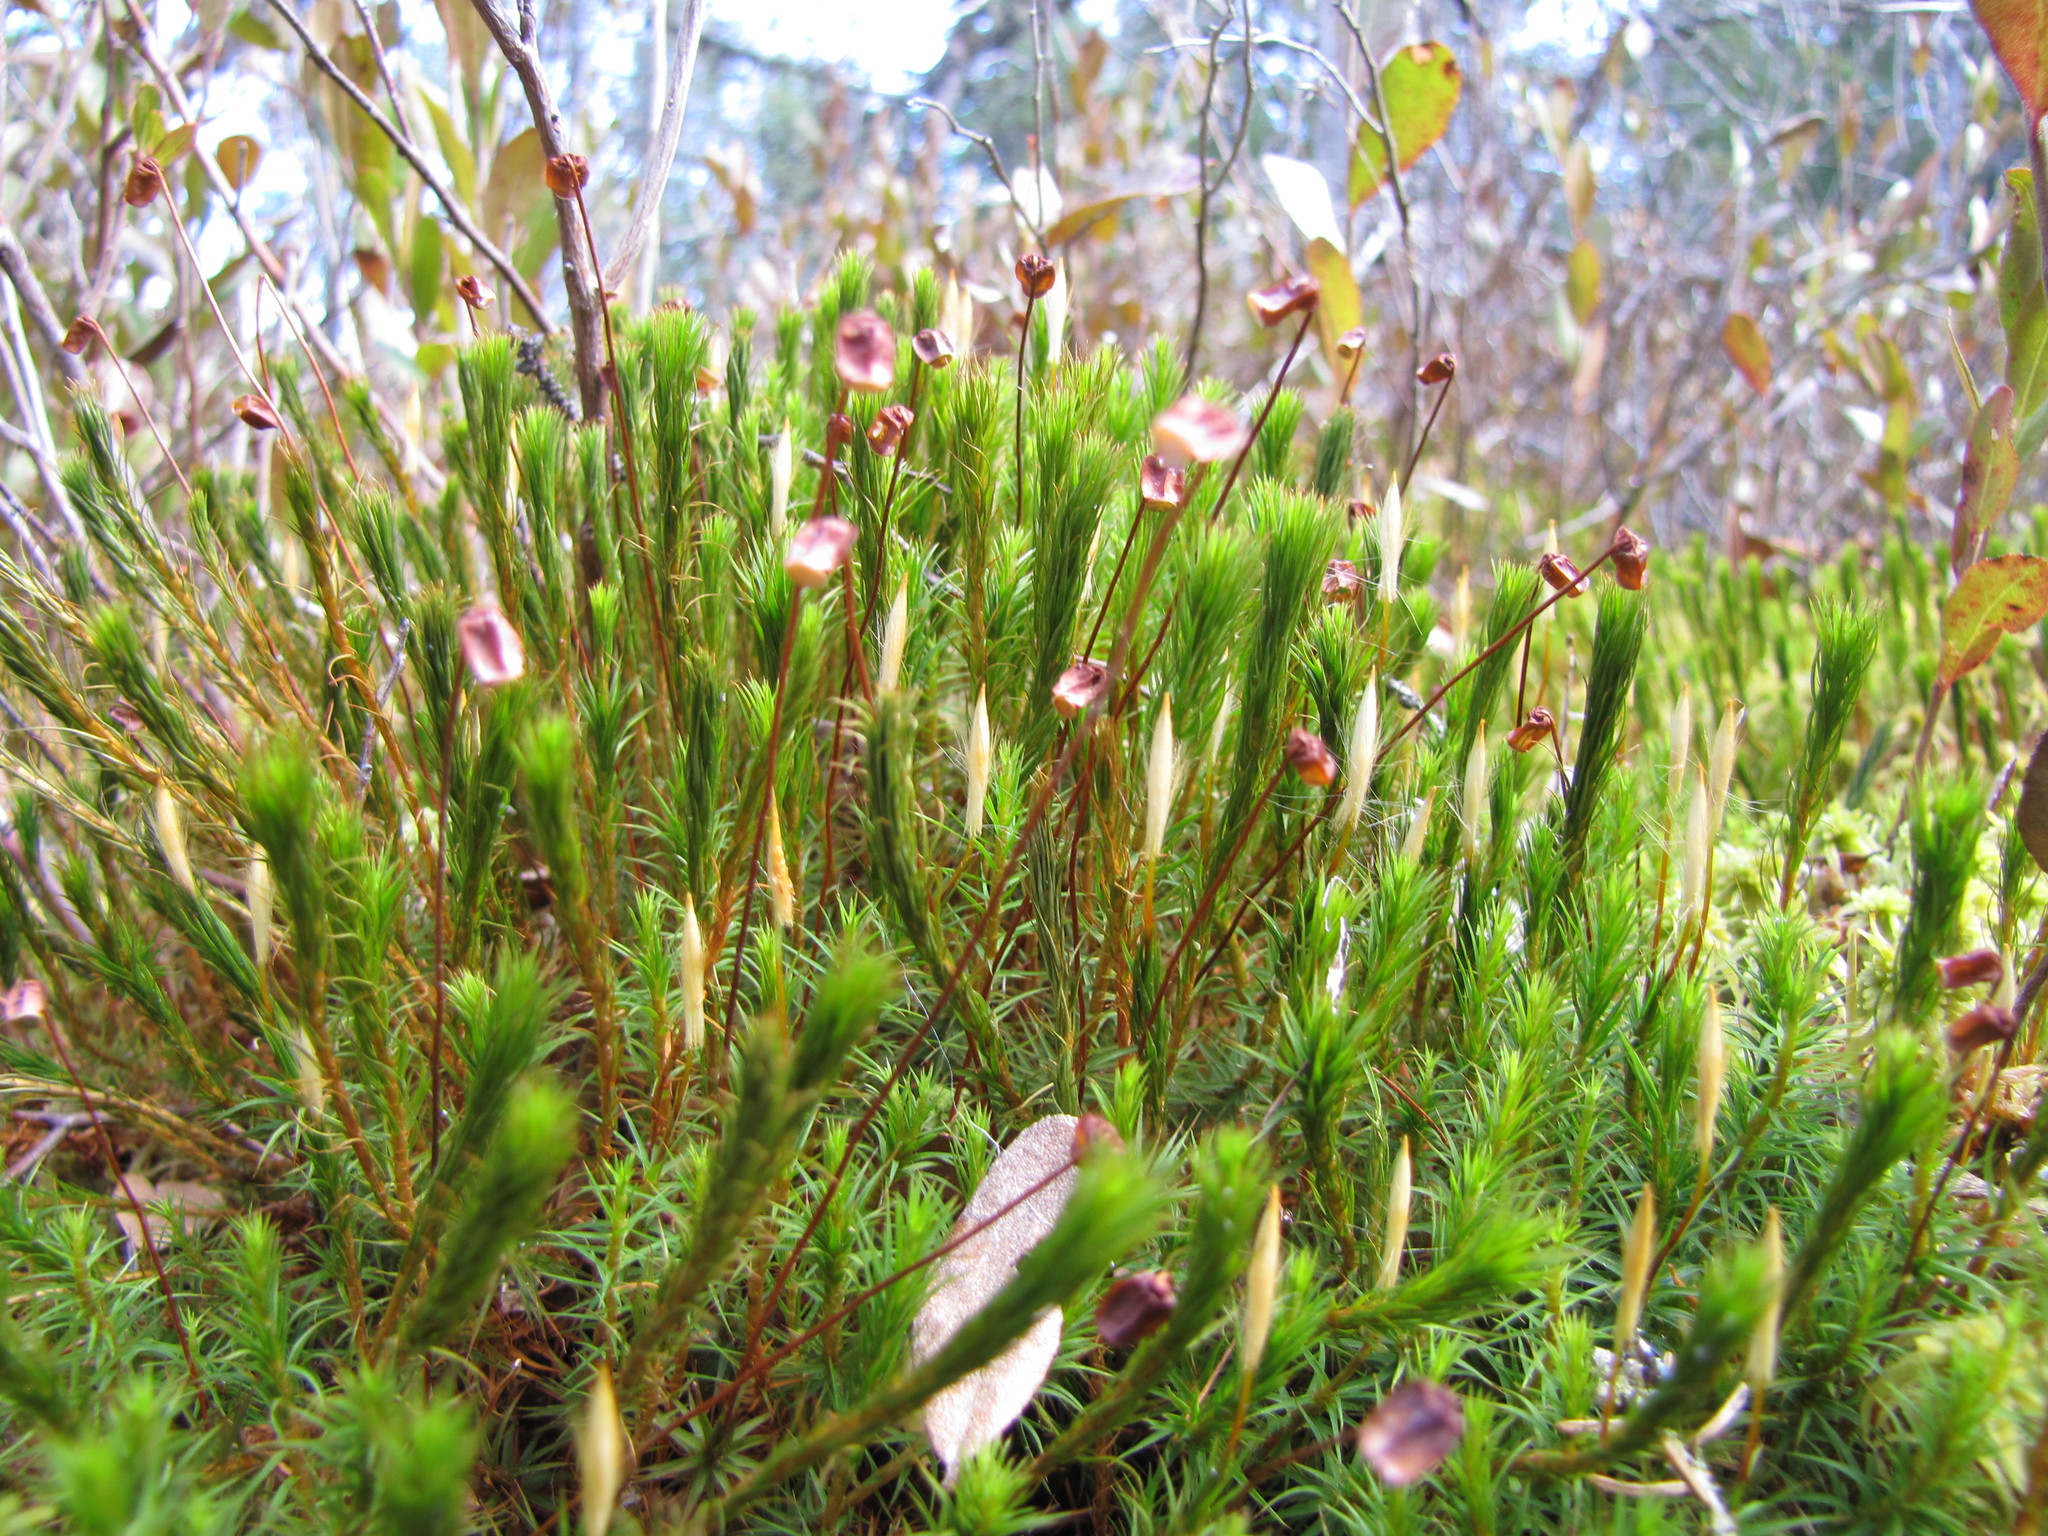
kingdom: Plantae
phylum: Bryophyta
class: Polytrichopsida
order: Polytrichales
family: Polytrichaceae
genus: Polytrichum
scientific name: Polytrichum commune
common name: Common haircap
